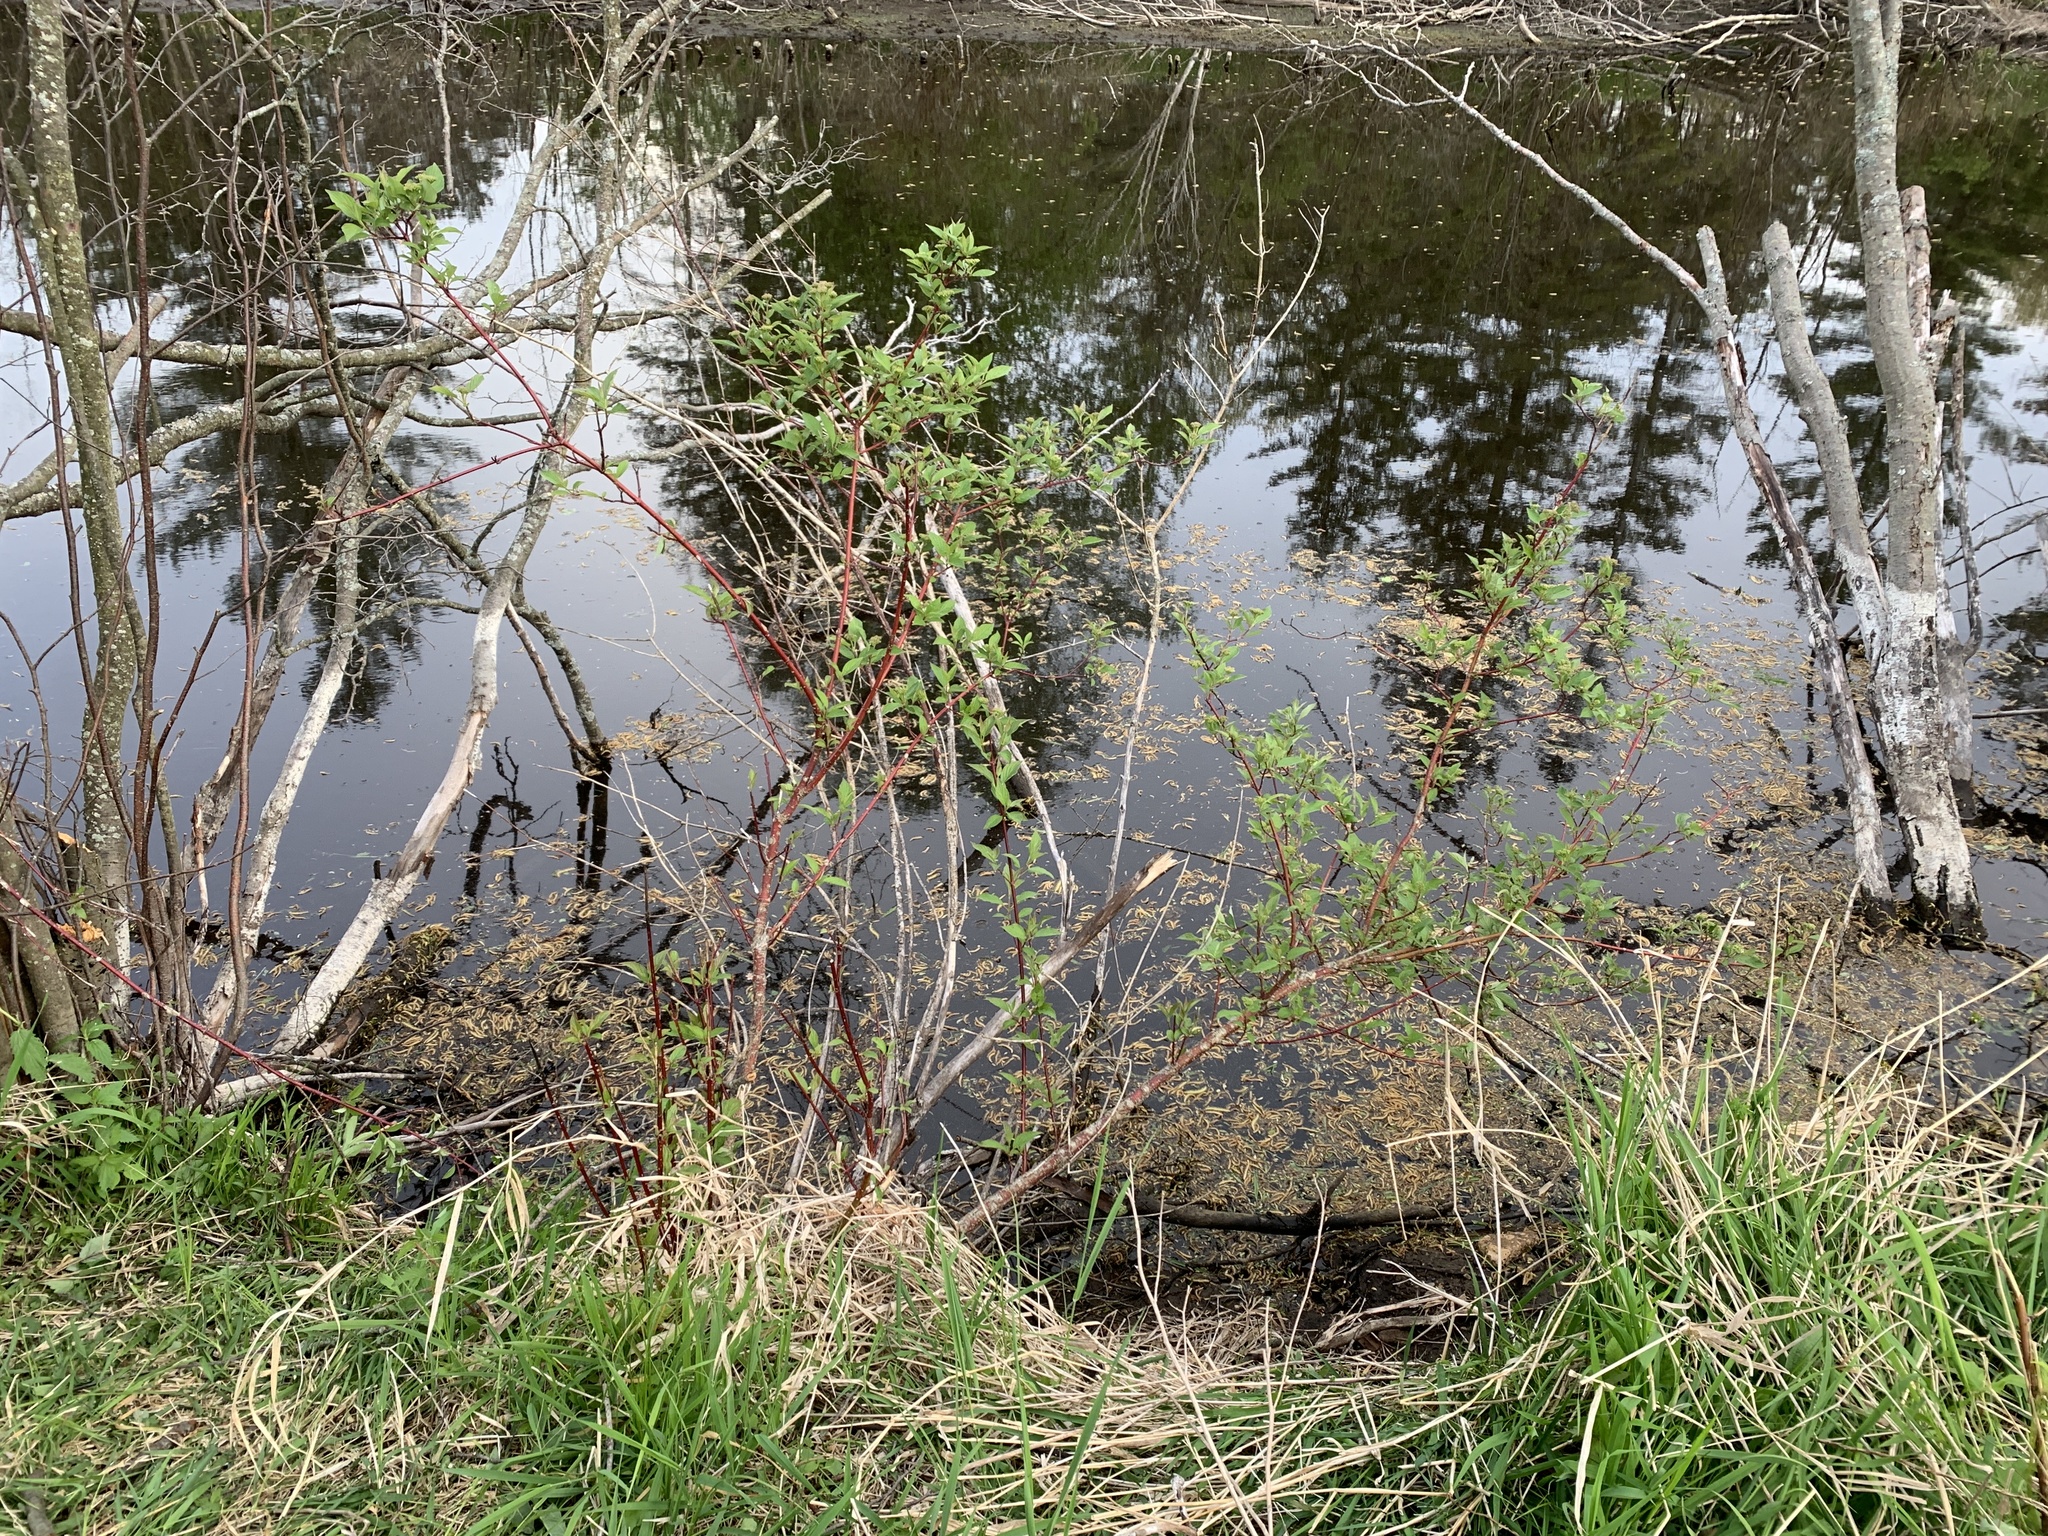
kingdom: Plantae
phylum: Tracheophyta
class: Magnoliopsida
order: Cornales
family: Cornaceae
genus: Cornus
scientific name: Cornus sericea
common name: Red-osier dogwood
